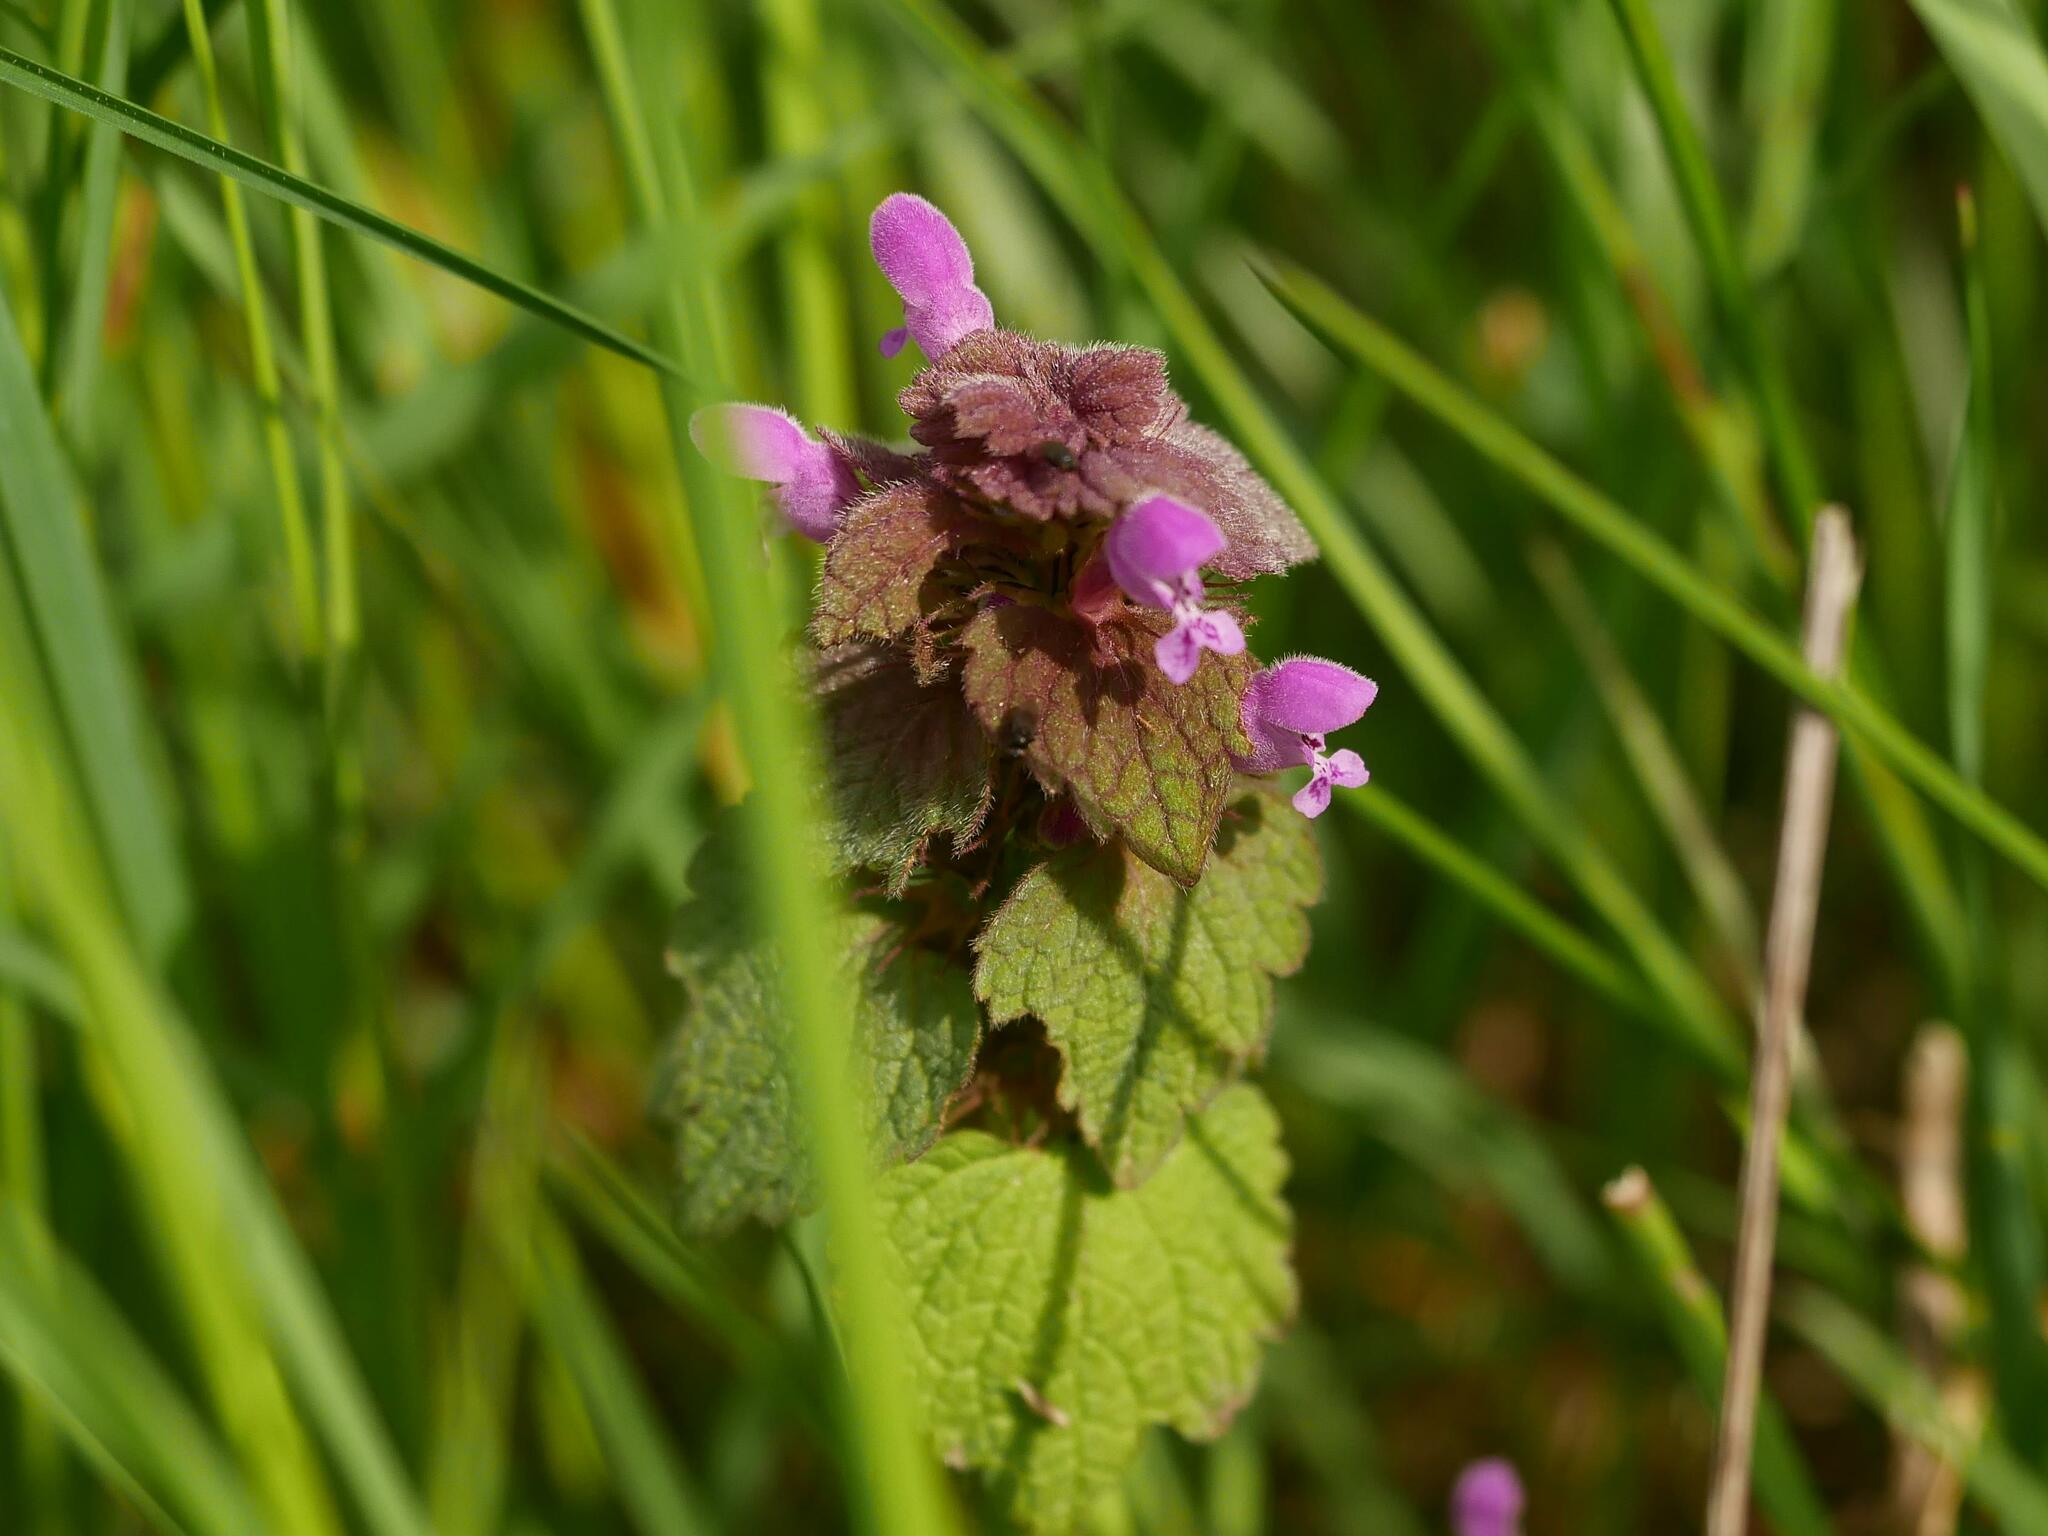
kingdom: Plantae
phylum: Tracheophyta
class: Magnoliopsida
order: Lamiales
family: Lamiaceae
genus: Lamium
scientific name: Lamium purpureum
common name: Red dead-nettle
